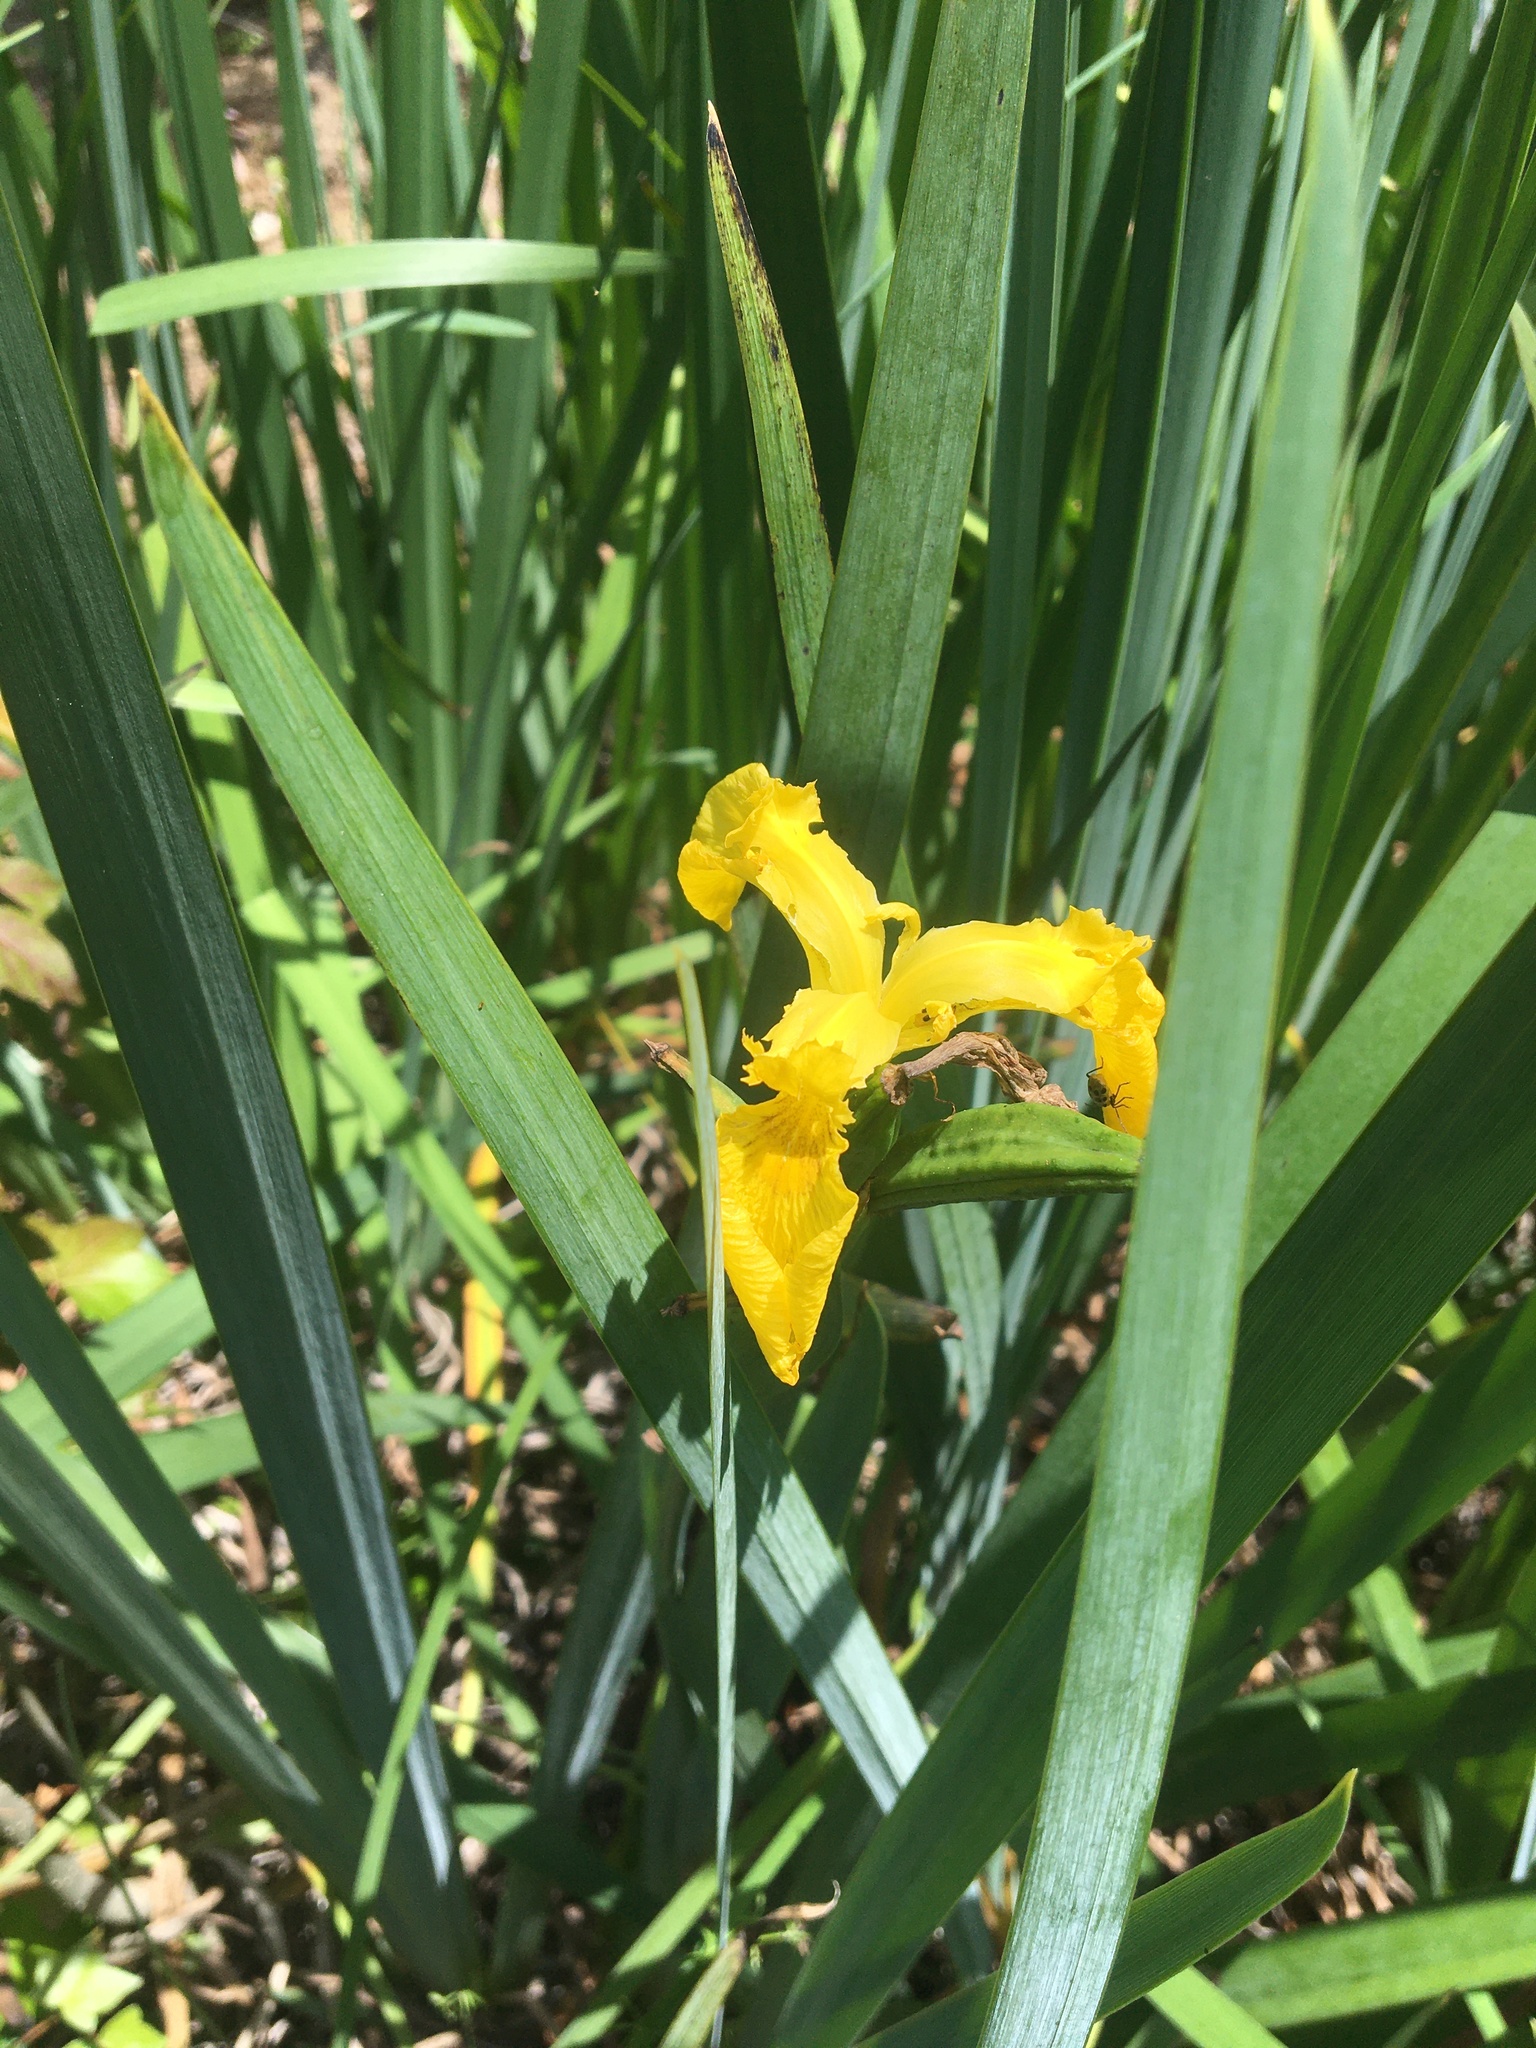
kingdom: Plantae
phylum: Tracheophyta
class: Liliopsida
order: Asparagales
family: Iridaceae
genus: Iris
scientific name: Iris pseudacorus
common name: Yellow flag
